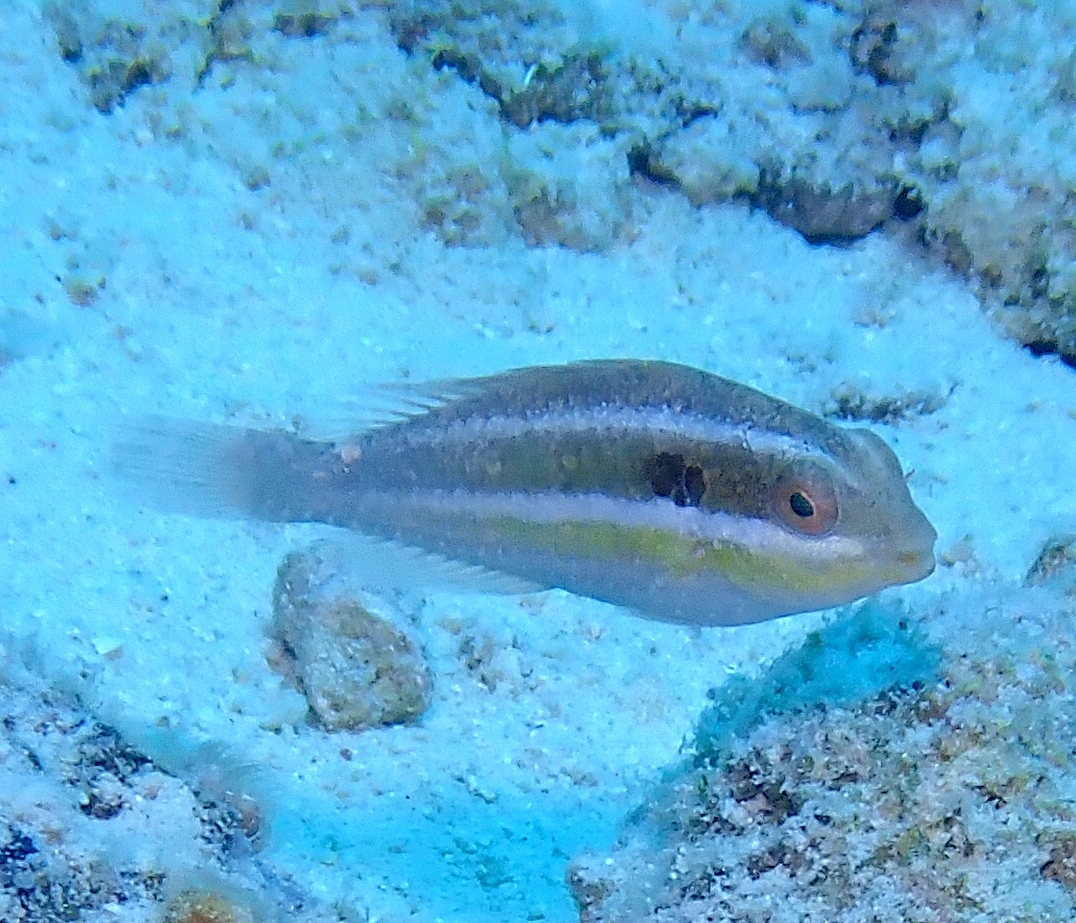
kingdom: Animalia
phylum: Chordata
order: Perciformes
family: Scaridae
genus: Sparisoma
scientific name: Sparisoma aurofrenatum
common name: Redband parrotfish
